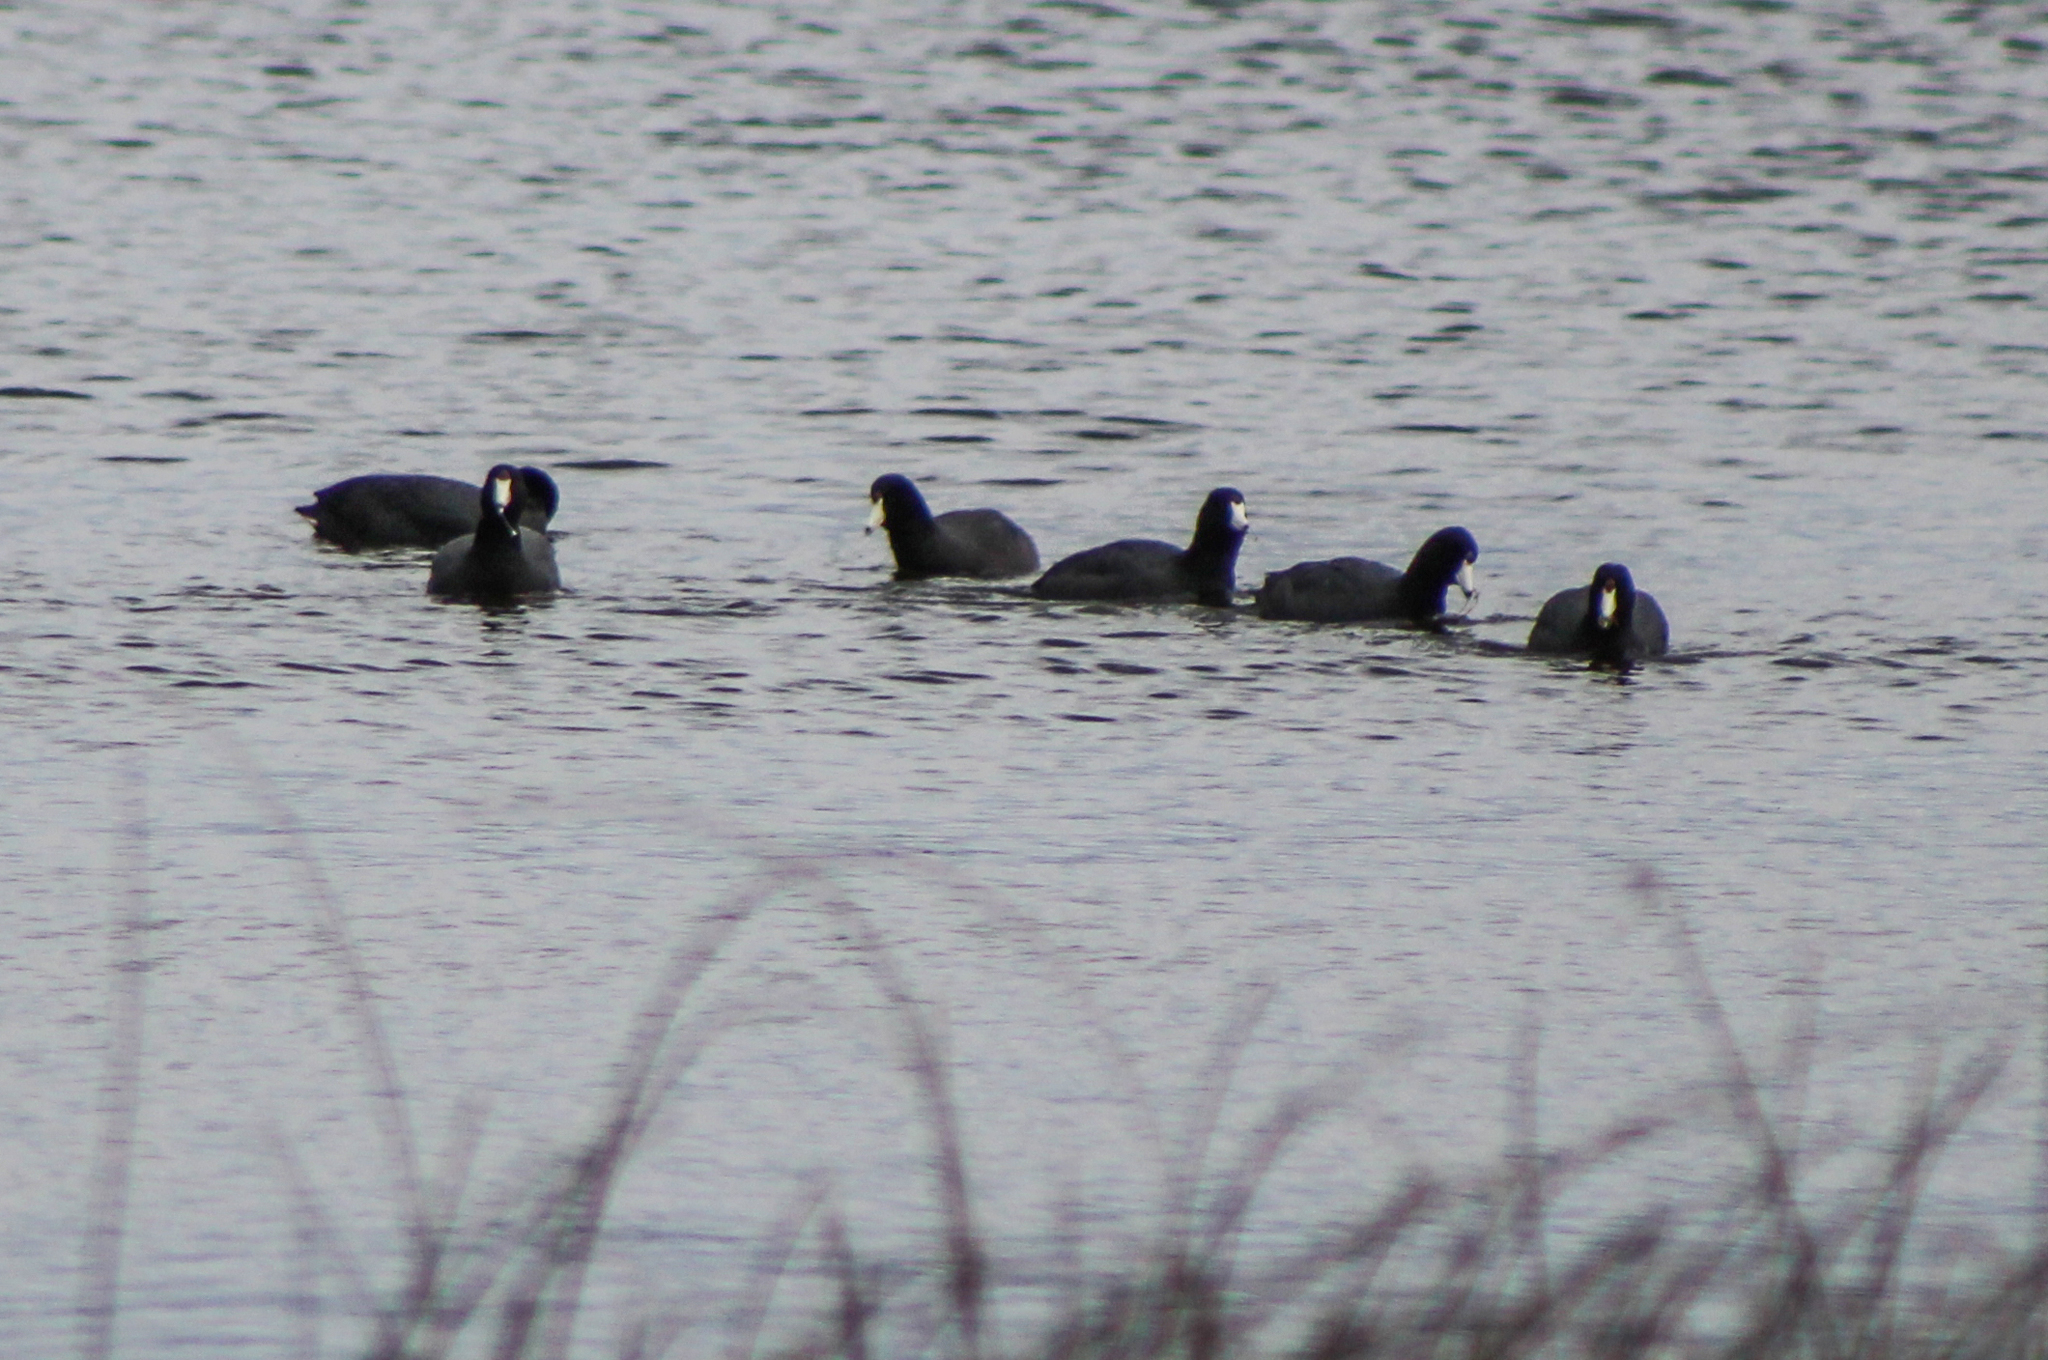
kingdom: Animalia
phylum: Chordata
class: Aves
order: Gruiformes
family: Rallidae
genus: Fulica
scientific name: Fulica americana
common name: American coot
